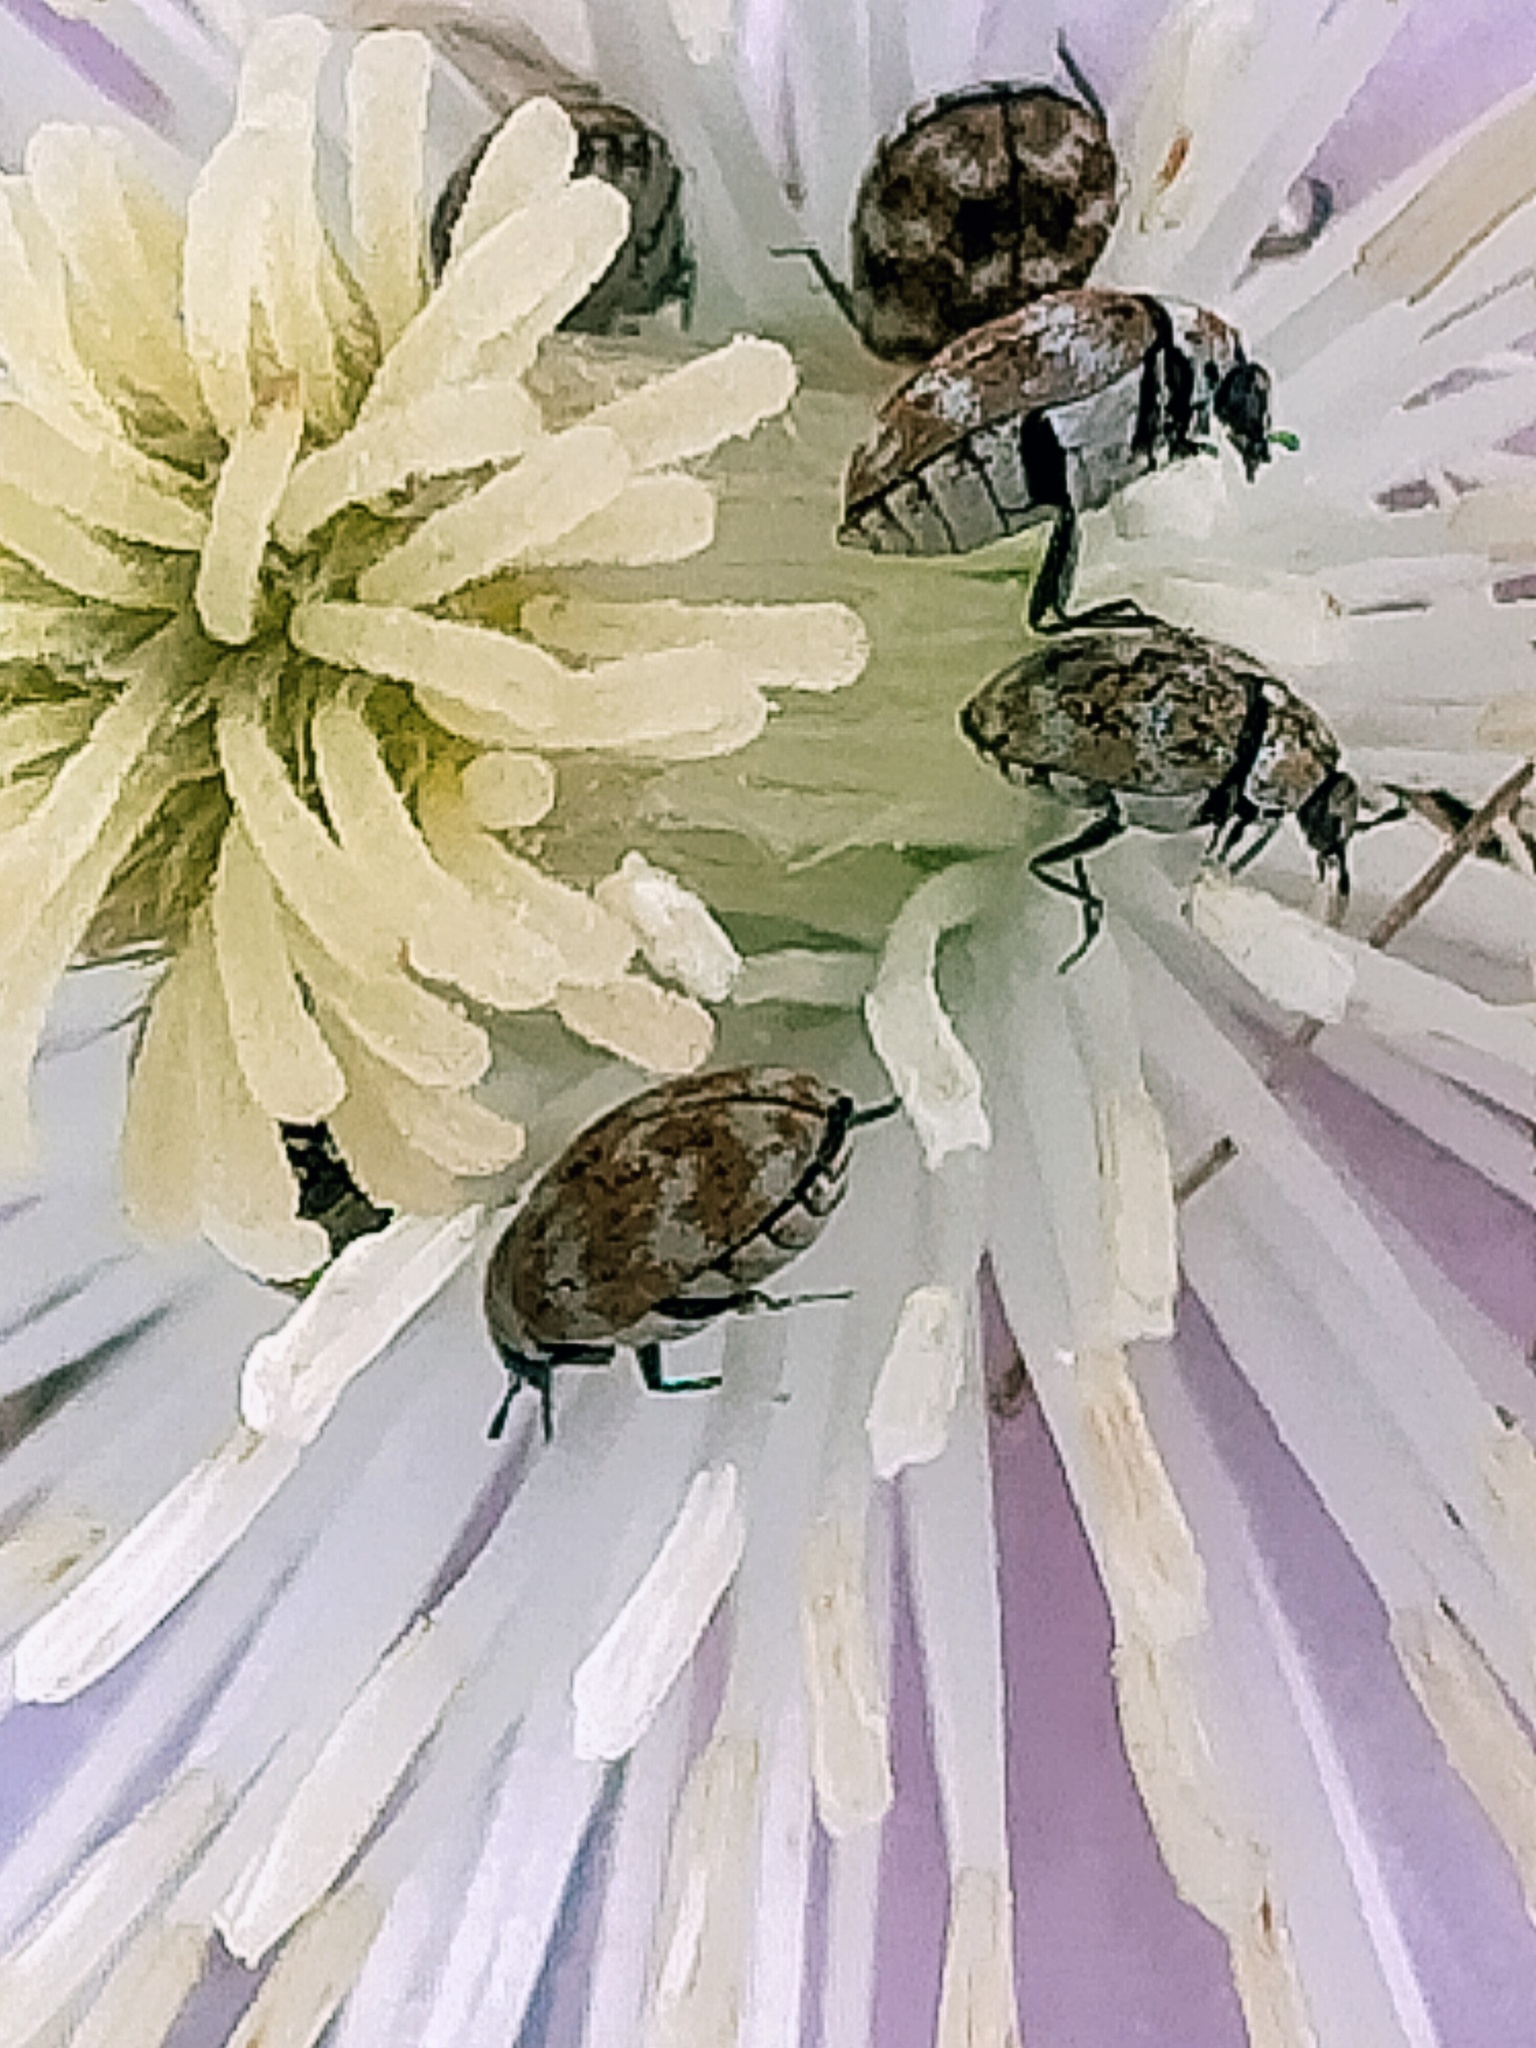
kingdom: Animalia
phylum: Arthropoda
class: Insecta
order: Coleoptera
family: Dermestidae
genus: Anthrenus
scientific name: Anthrenus verbasci
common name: Varied carpet beetle
